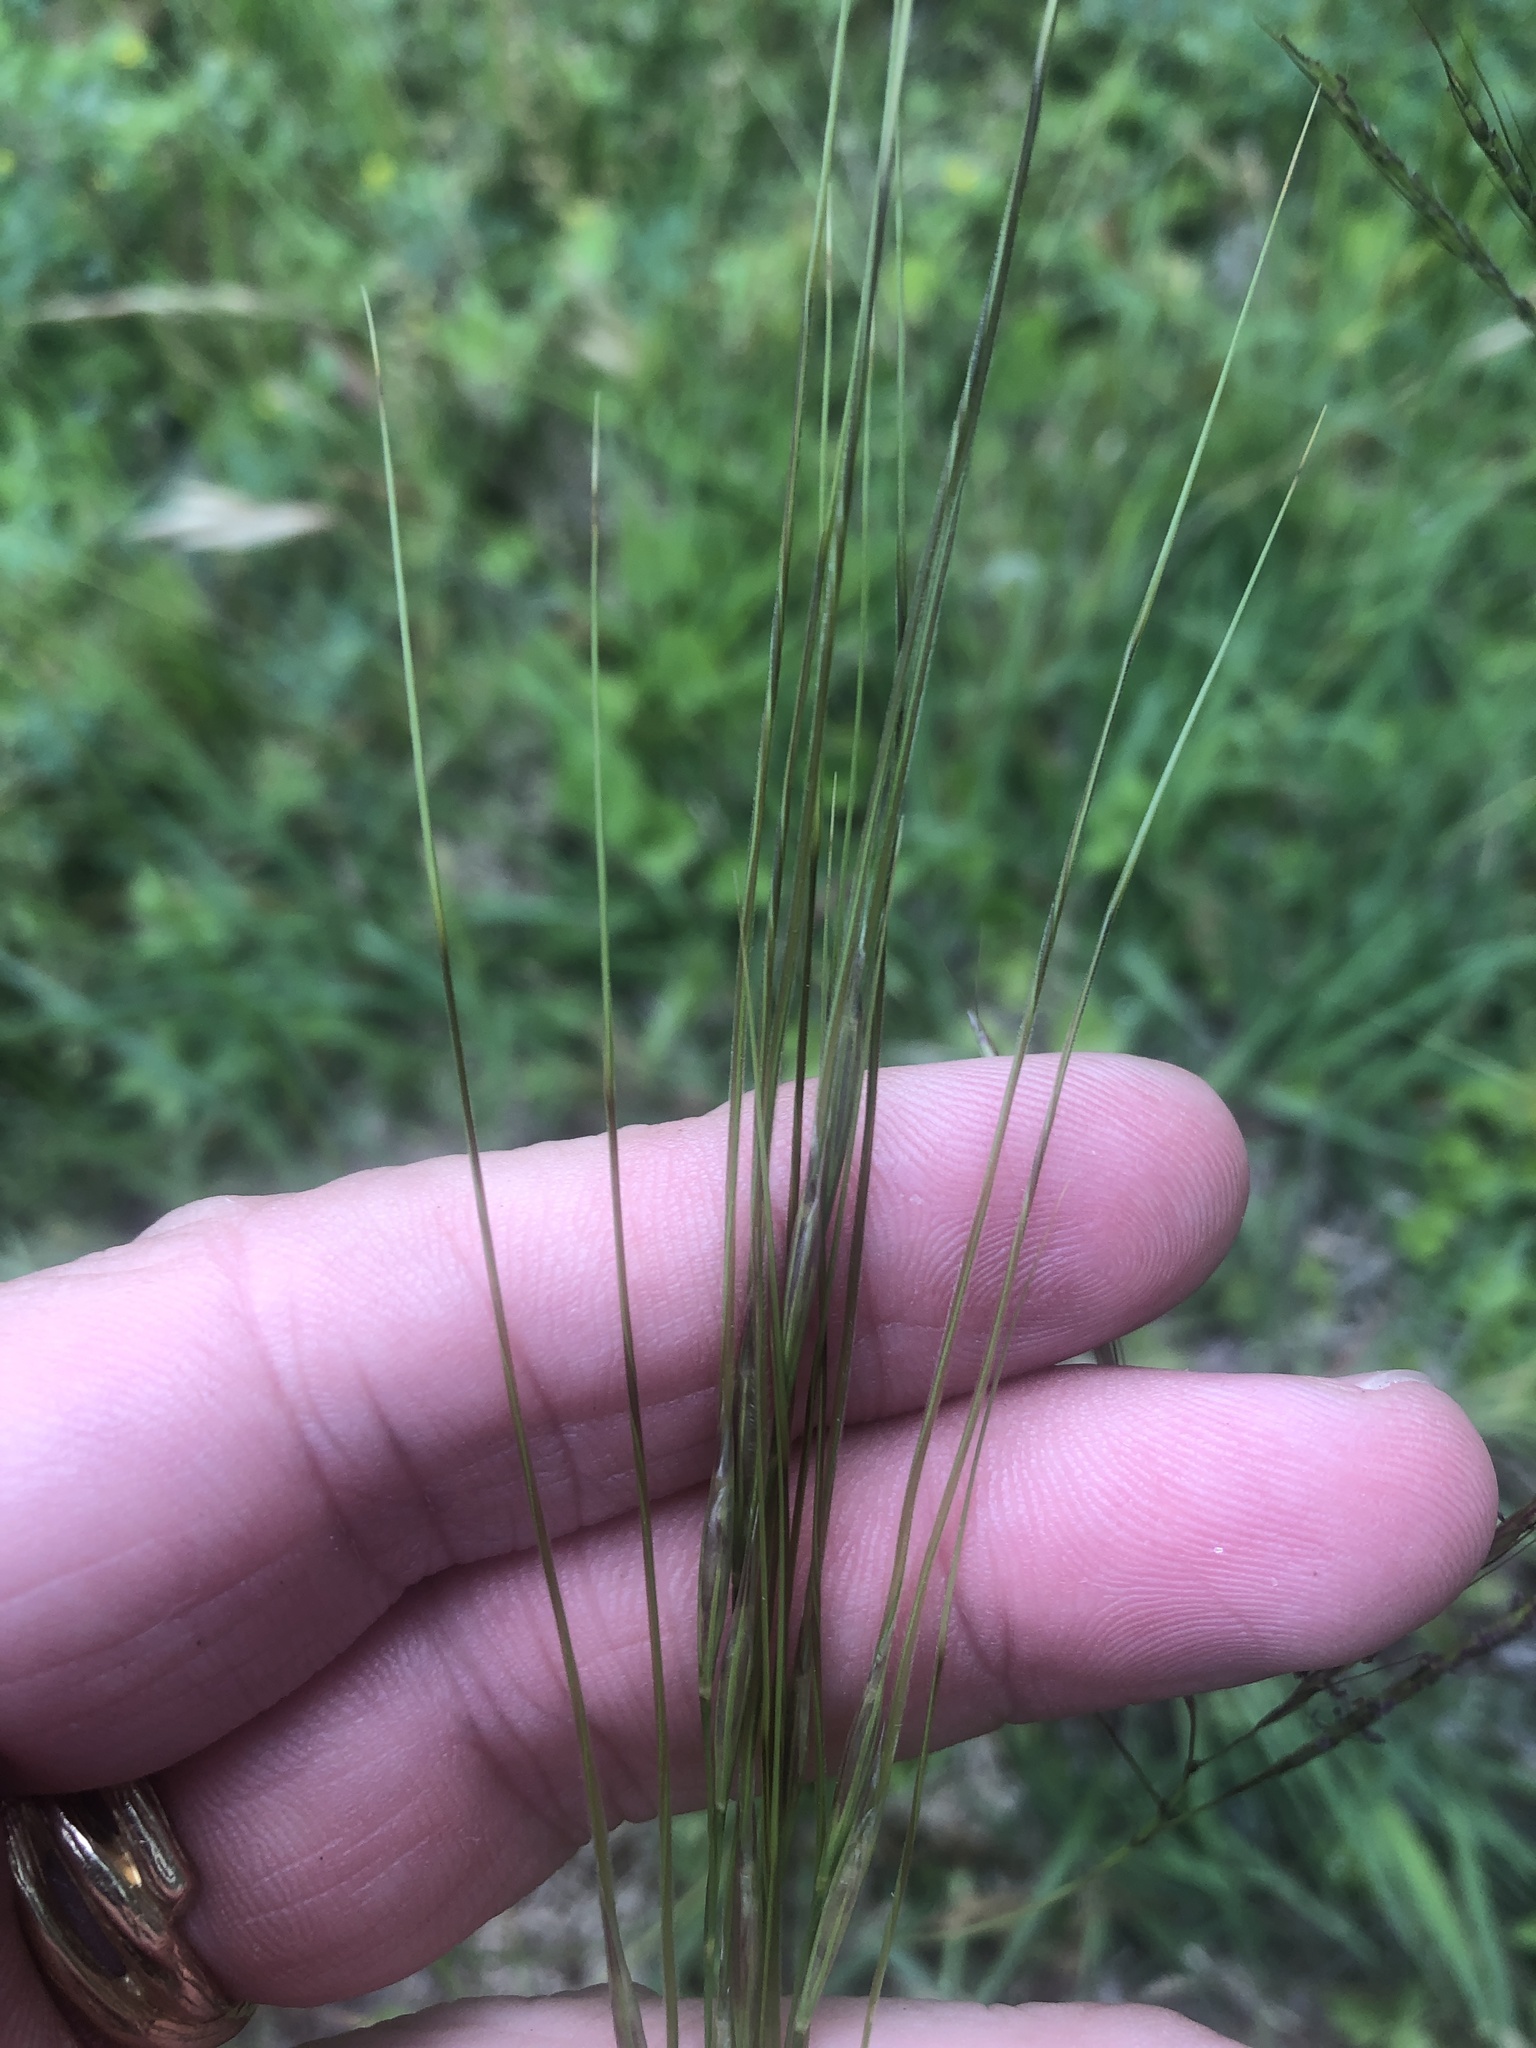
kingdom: Plantae
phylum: Tracheophyta
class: Liliopsida
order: Poales
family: Poaceae
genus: Nassella
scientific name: Nassella leucotricha
